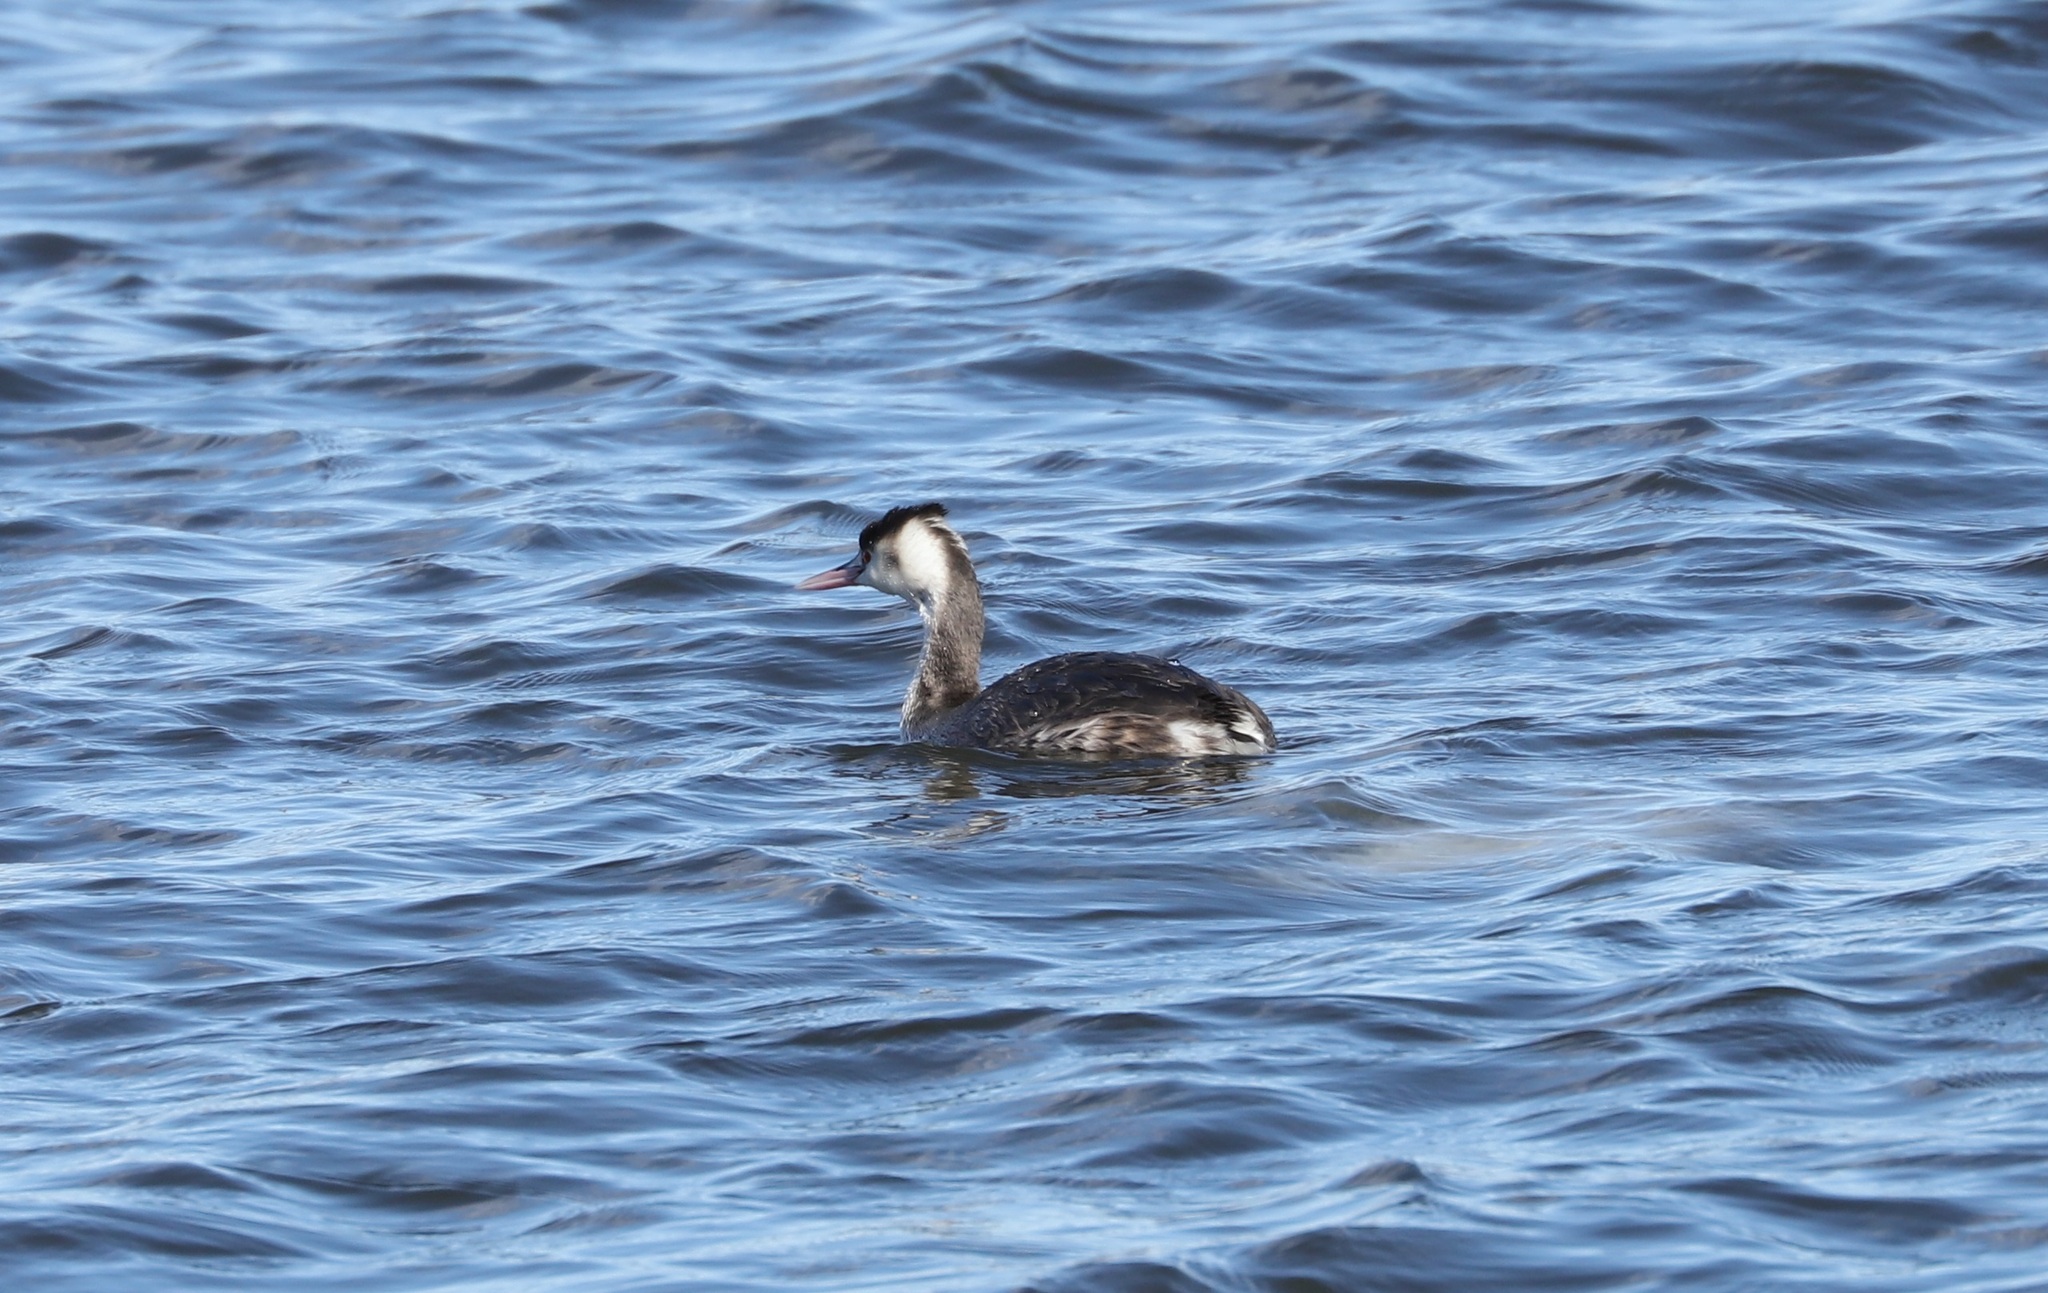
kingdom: Animalia
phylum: Chordata
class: Aves
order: Podicipediformes
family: Podicipedidae
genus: Podiceps
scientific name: Podiceps cristatus
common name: Great crested grebe
